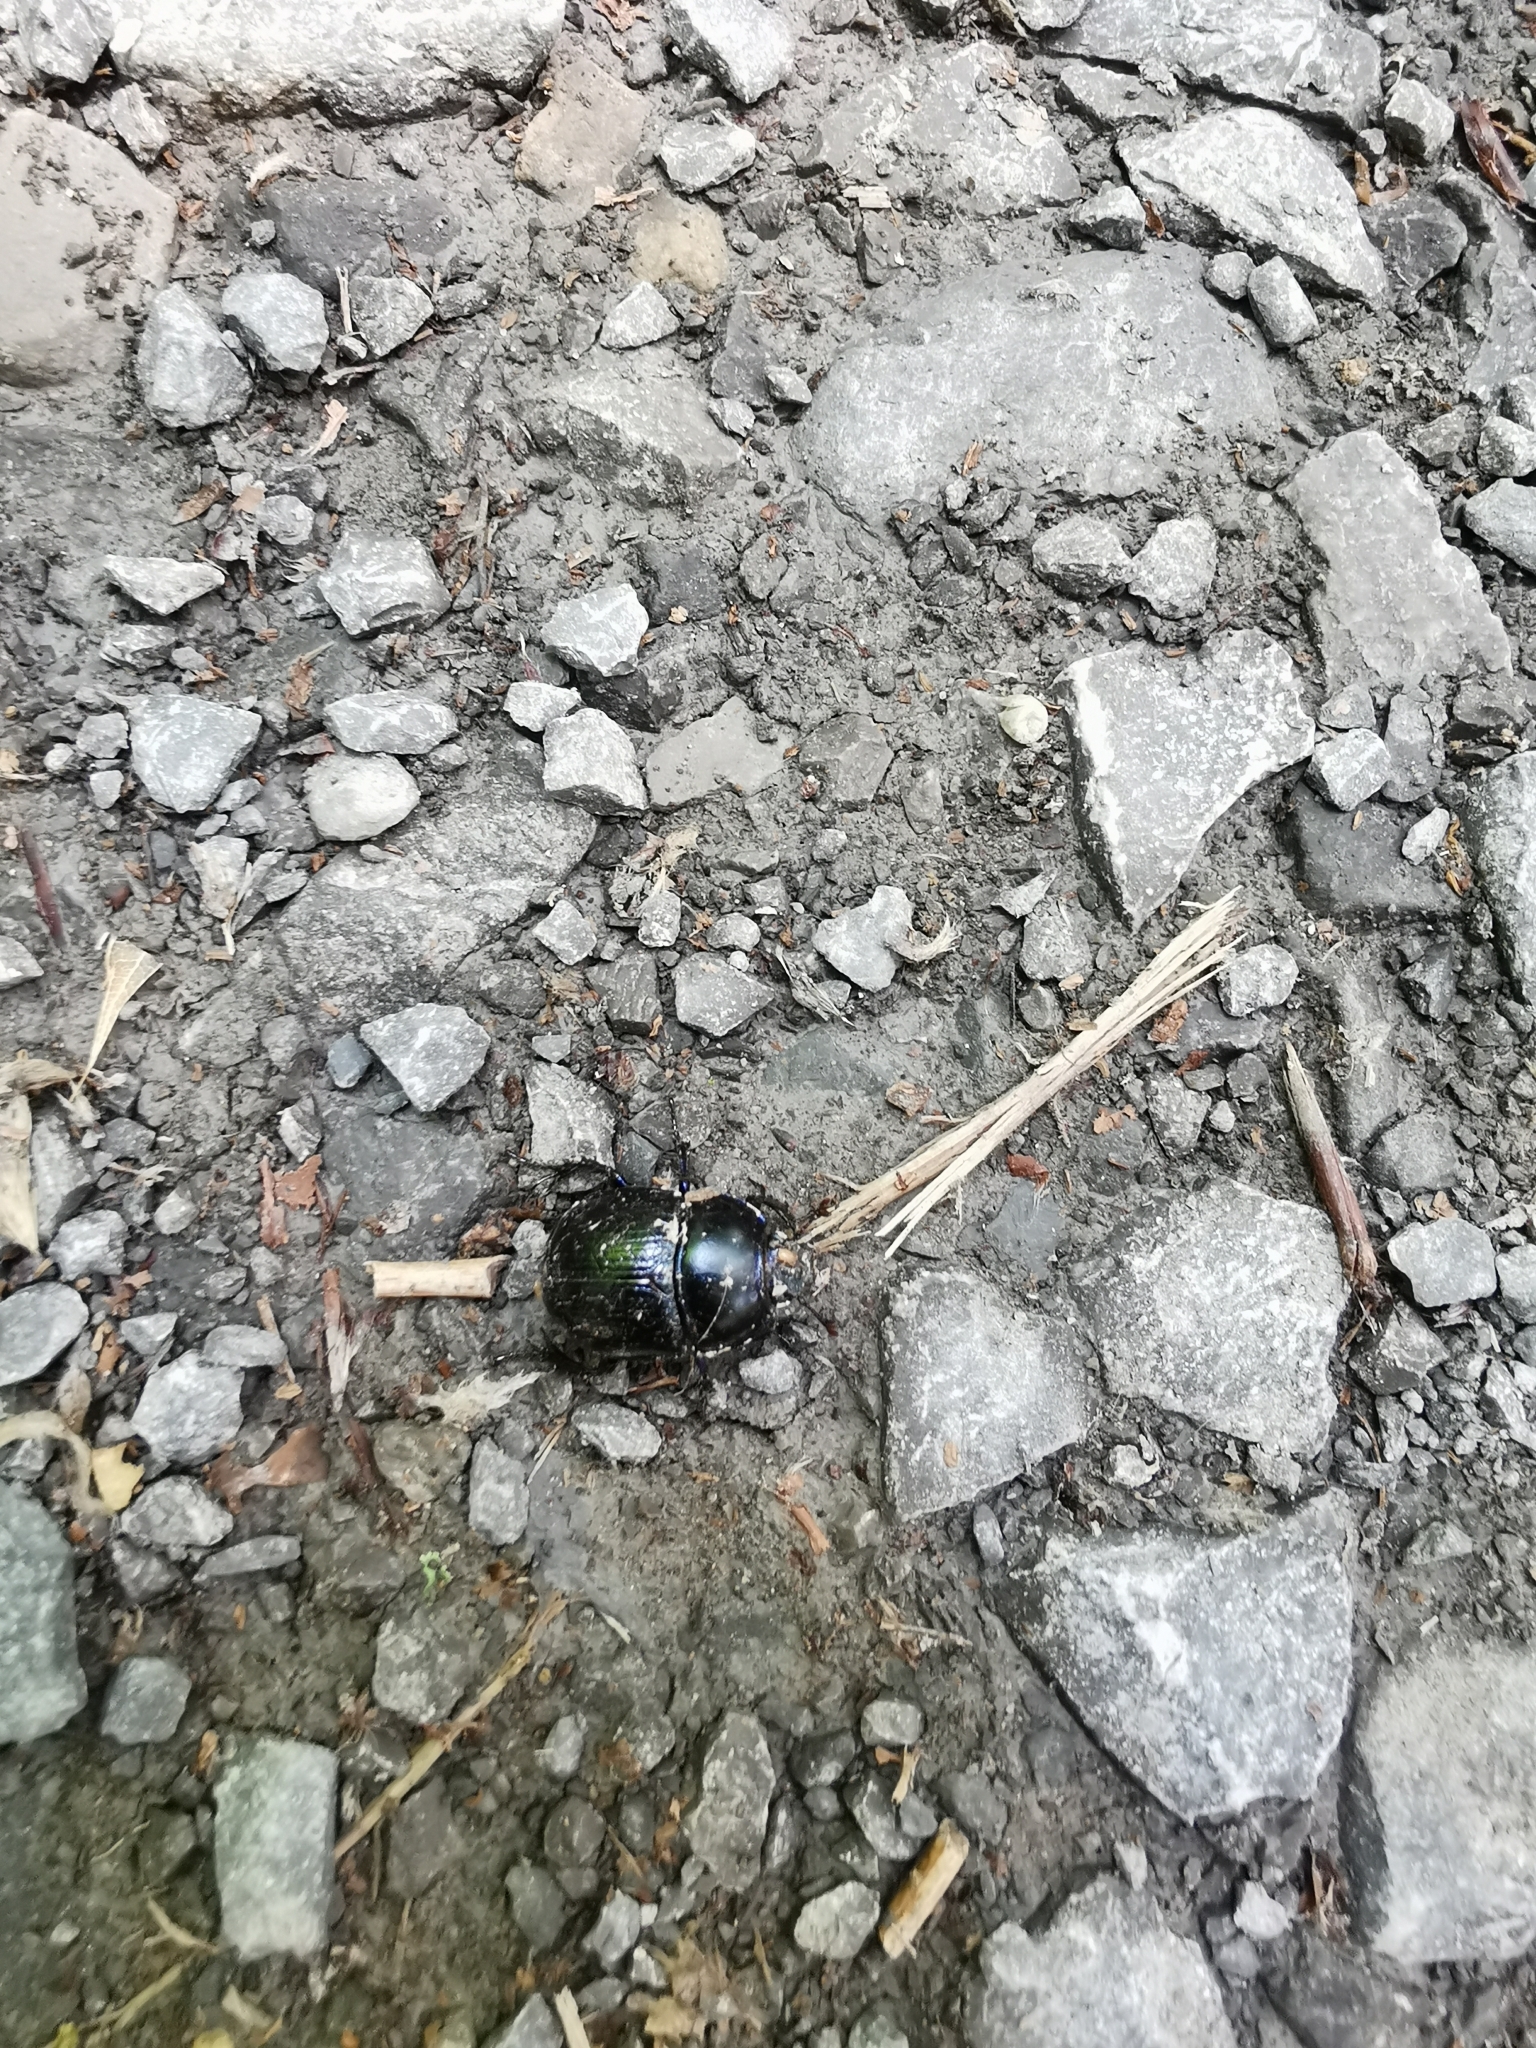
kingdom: Animalia
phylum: Arthropoda
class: Insecta
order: Coleoptera
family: Geotrupidae
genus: Anoplotrupes
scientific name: Anoplotrupes stercorosus
